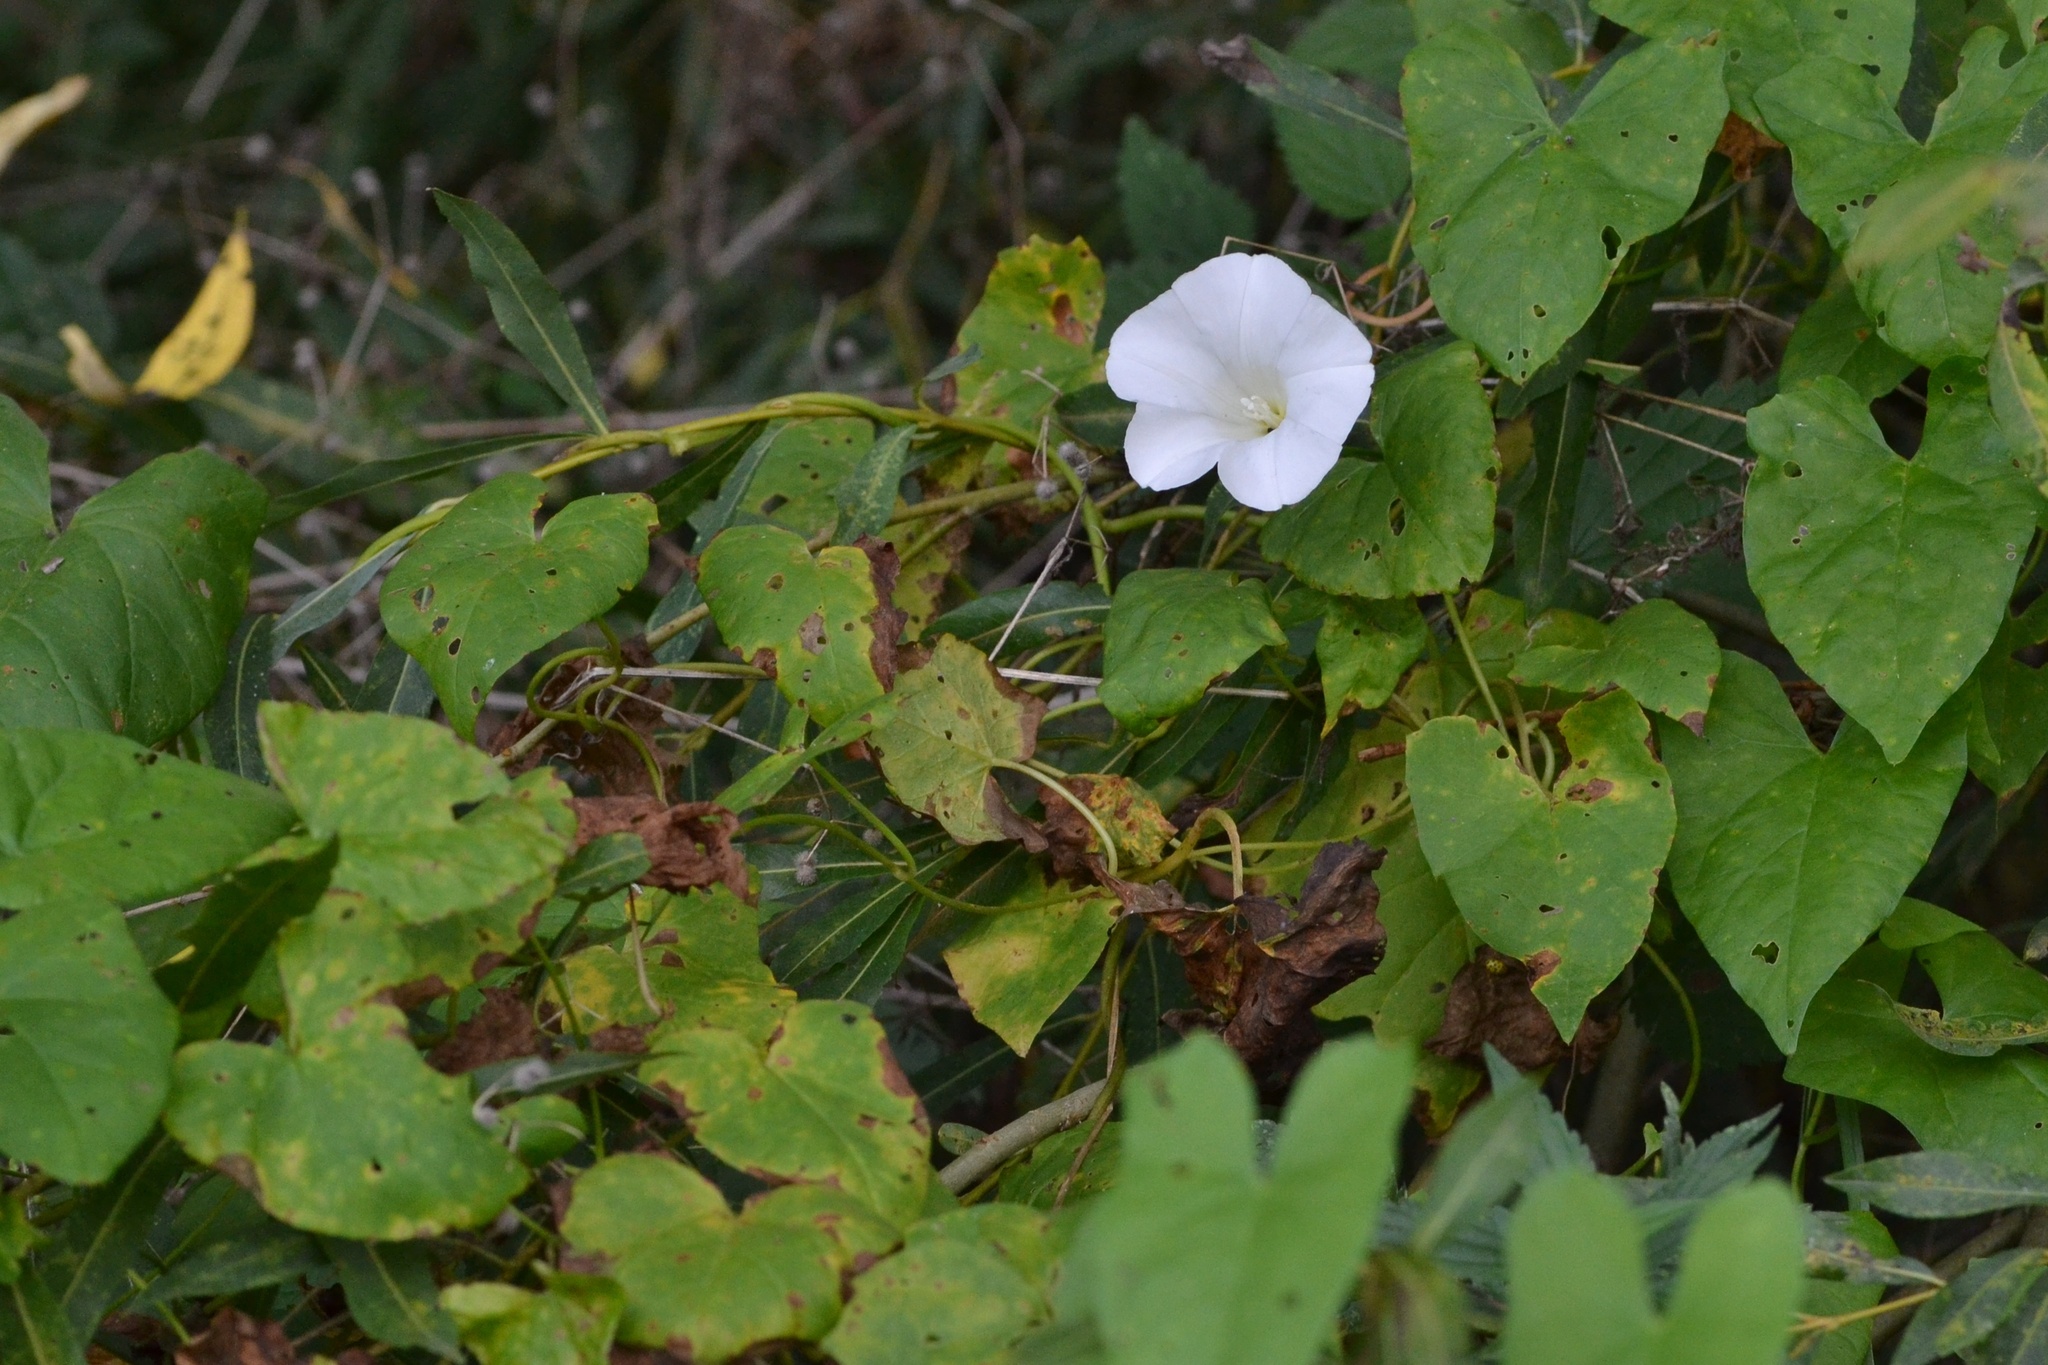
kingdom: Plantae
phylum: Tracheophyta
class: Magnoliopsida
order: Solanales
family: Convolvulaceae
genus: Calystegia
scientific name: Calystegia sepium
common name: Hedge bindweed
